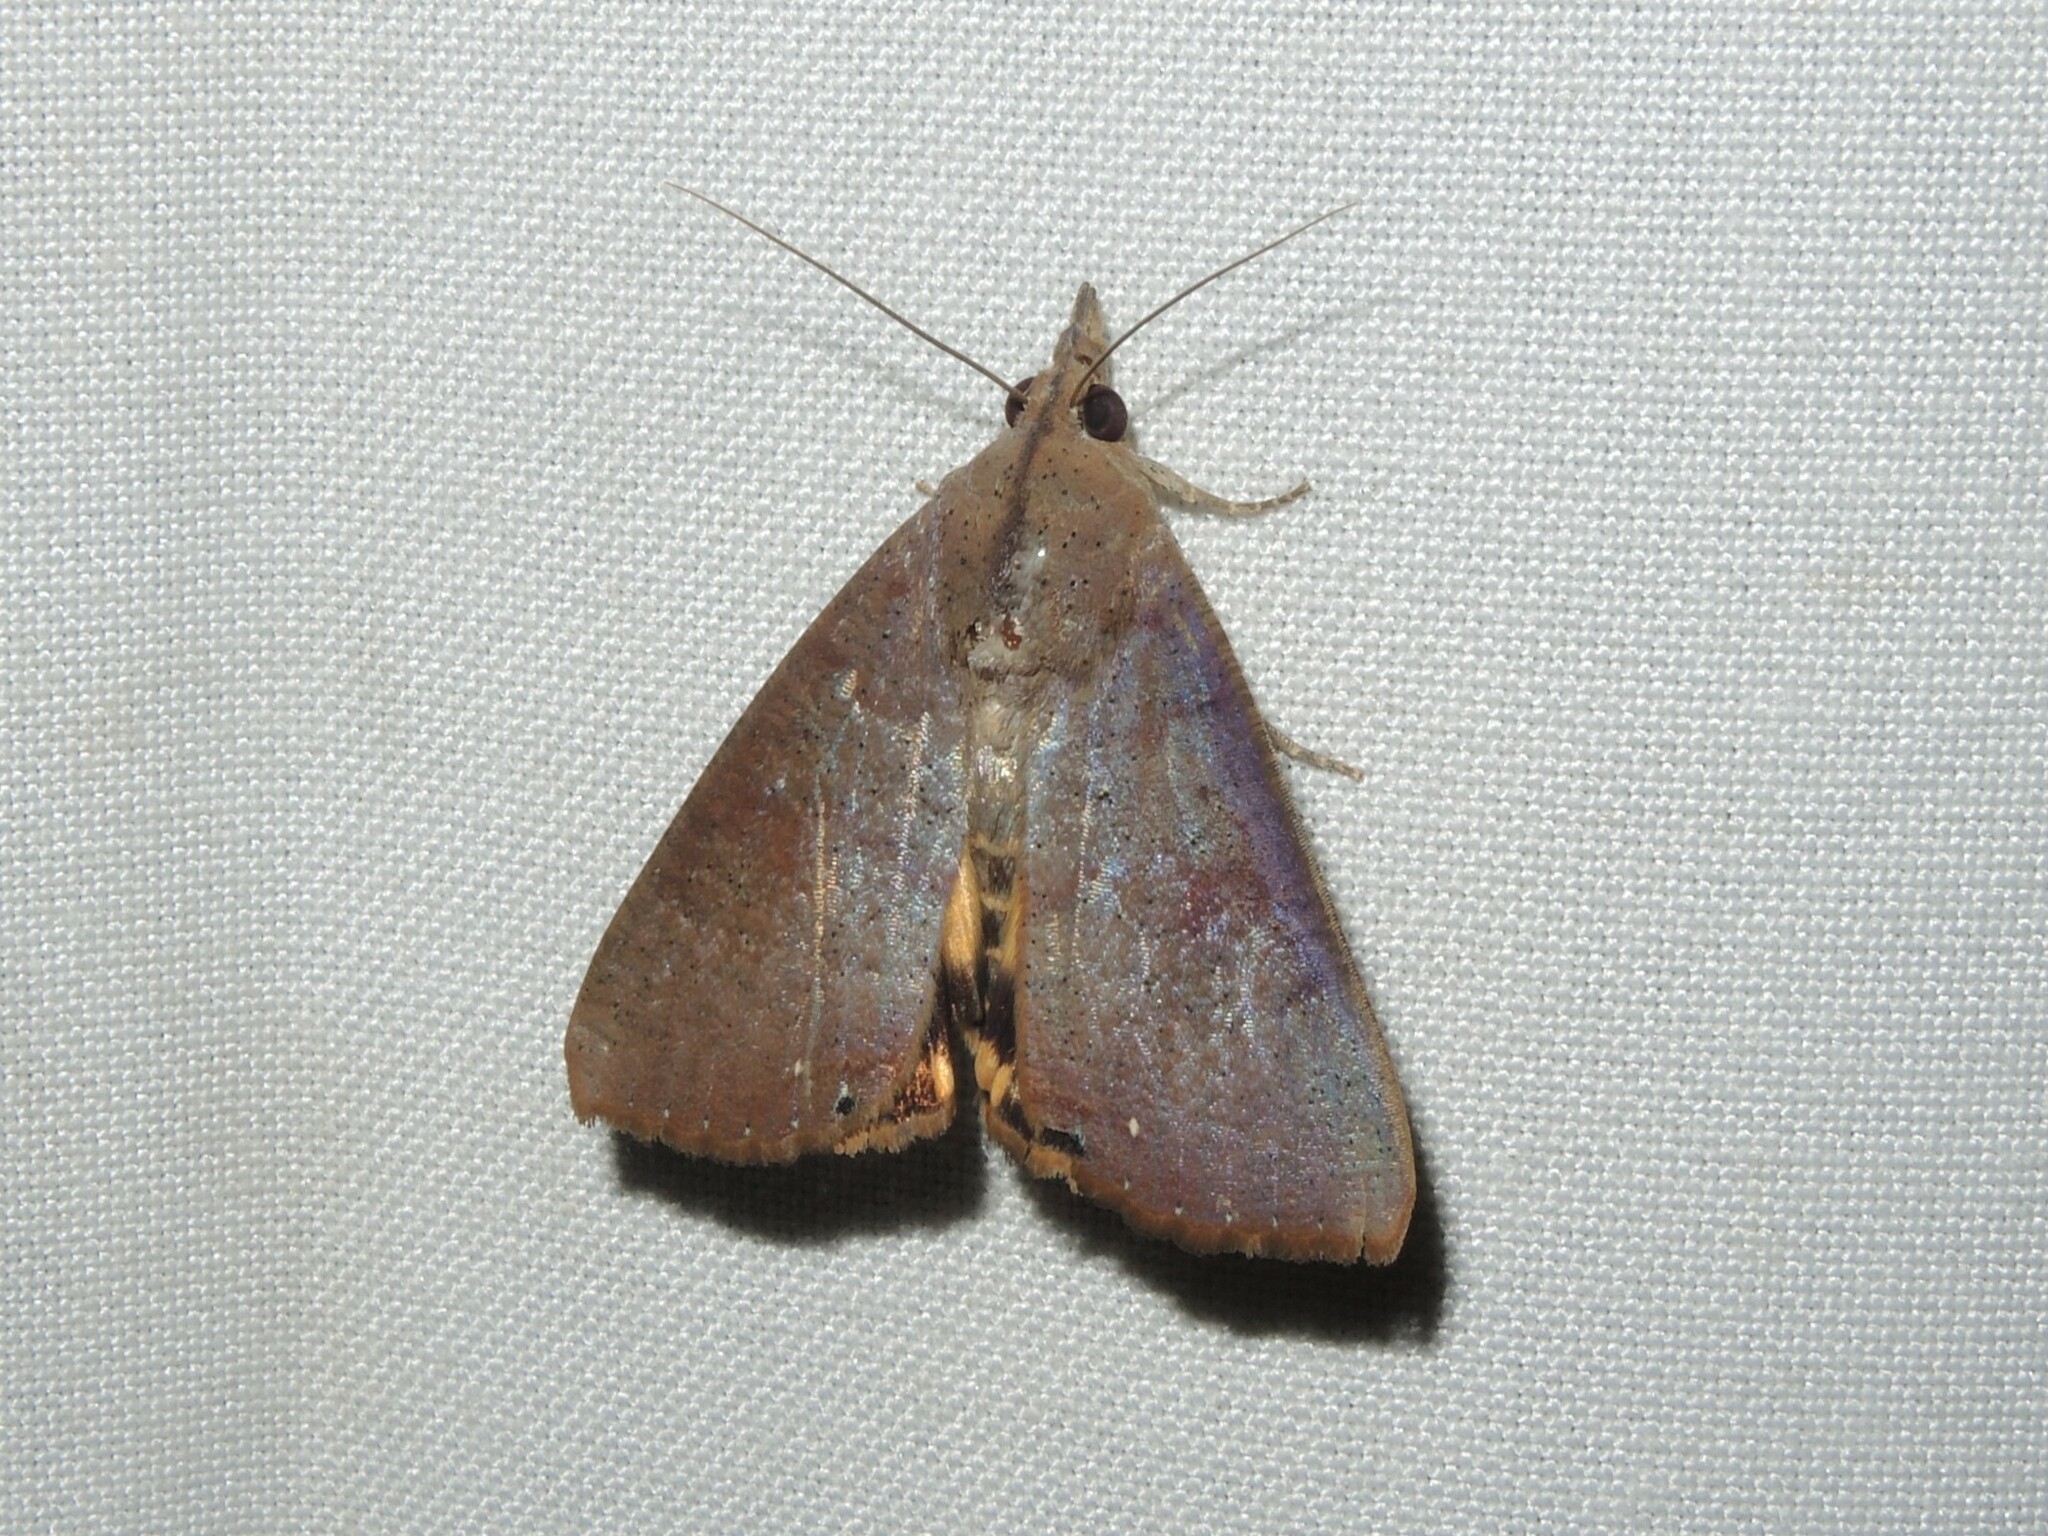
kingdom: Animalia
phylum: Arthropoda
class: Insecta
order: Lepidoptera
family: Erebidae
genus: Hypocala
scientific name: Hypocala deflorata
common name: Moth
